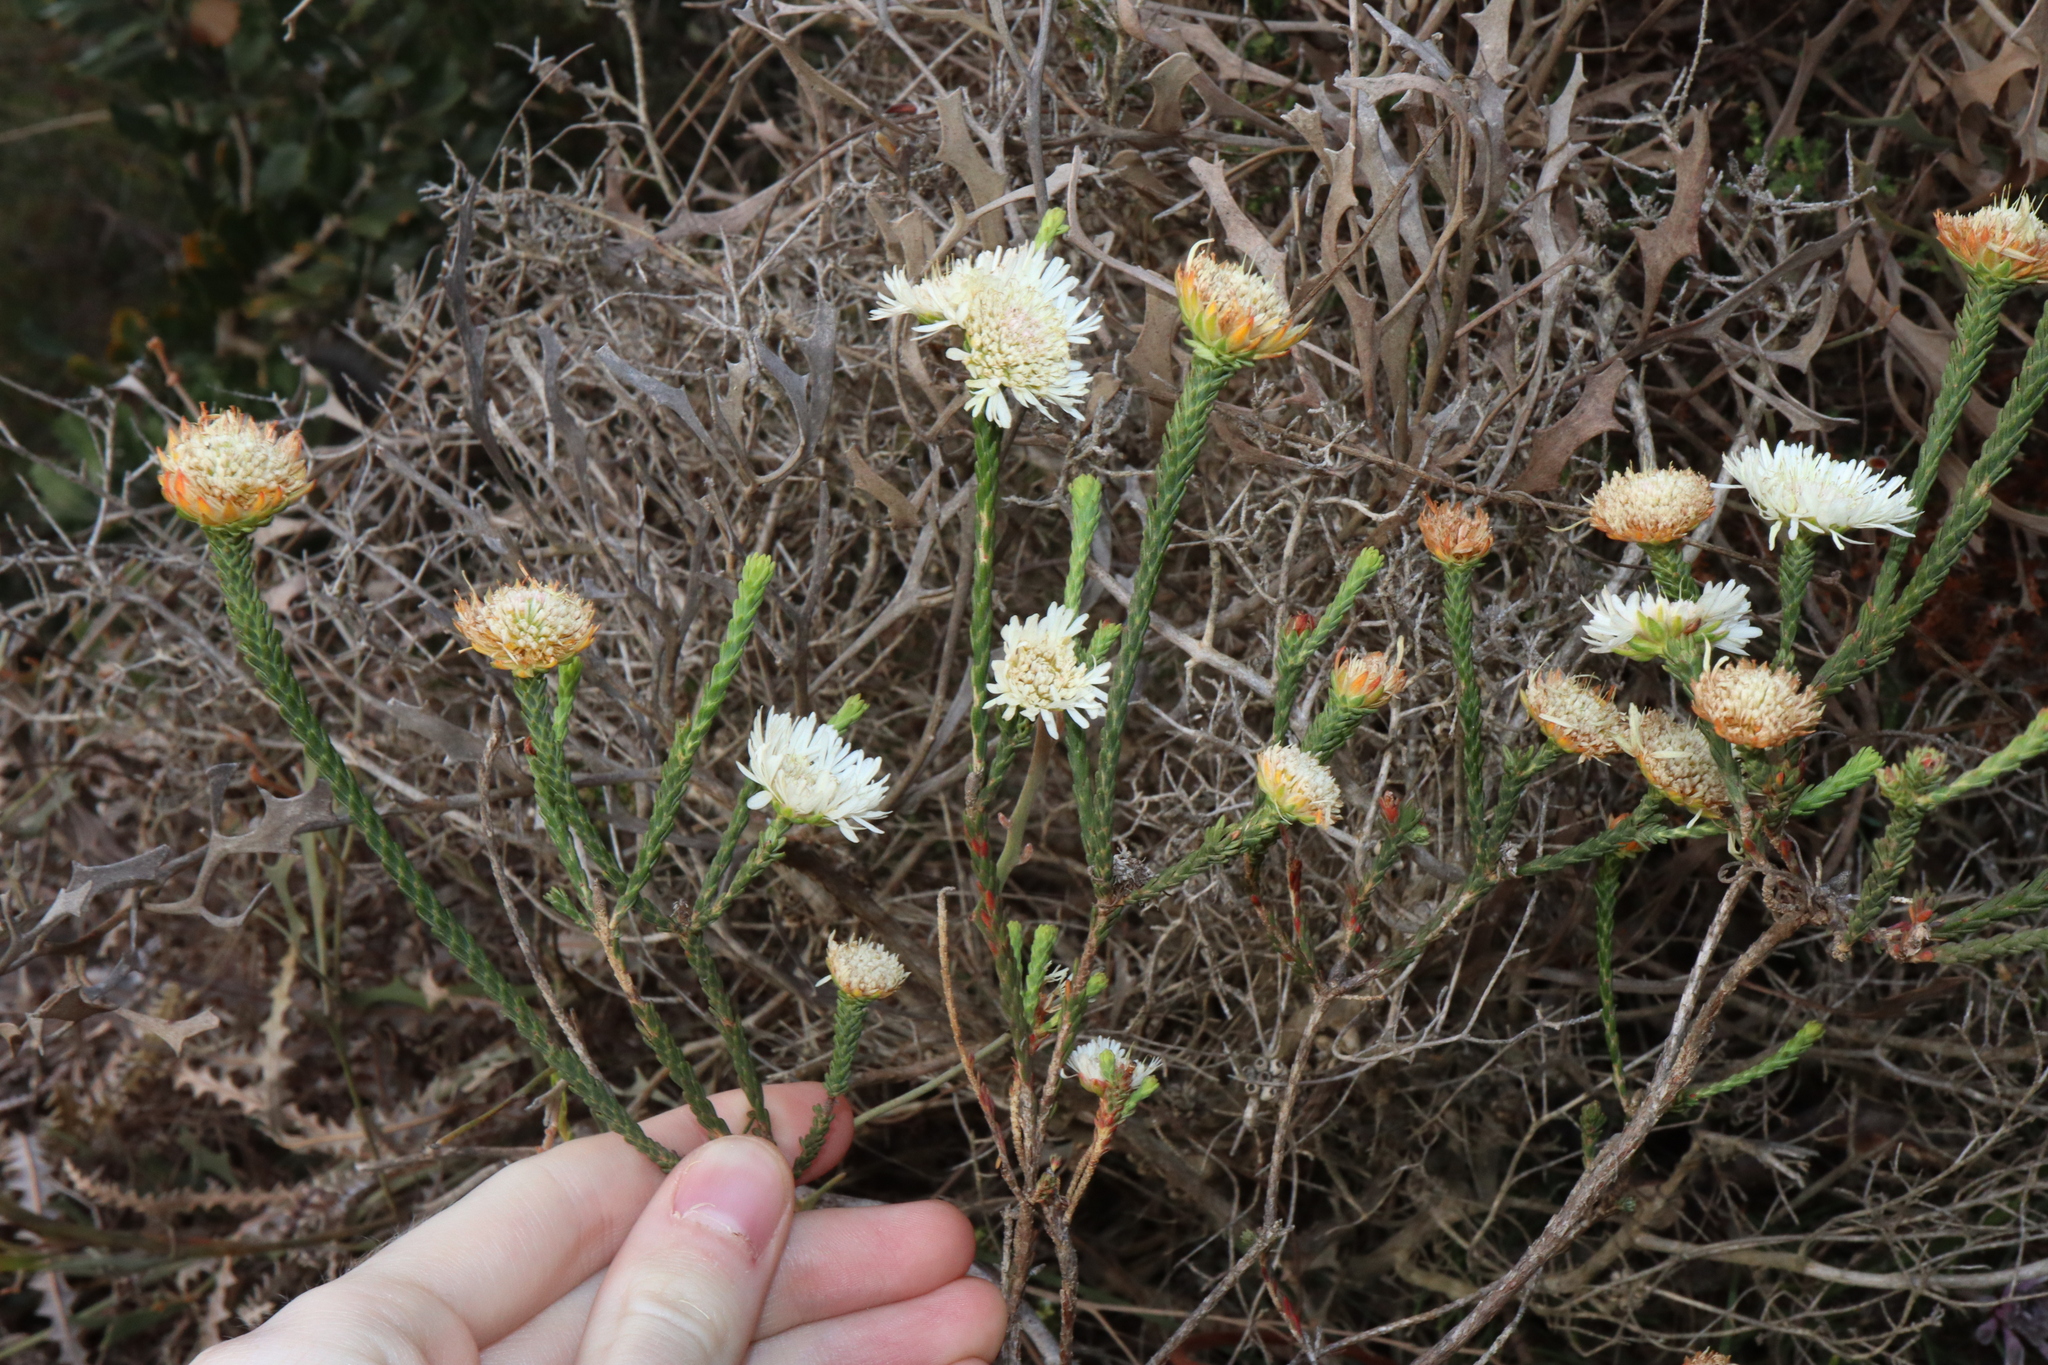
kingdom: Plantae
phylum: Tracheophyta
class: Magnoliopsida
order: Myrtales
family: Myrtaceae
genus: Actinodium
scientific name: Actinodium cunninghamii
